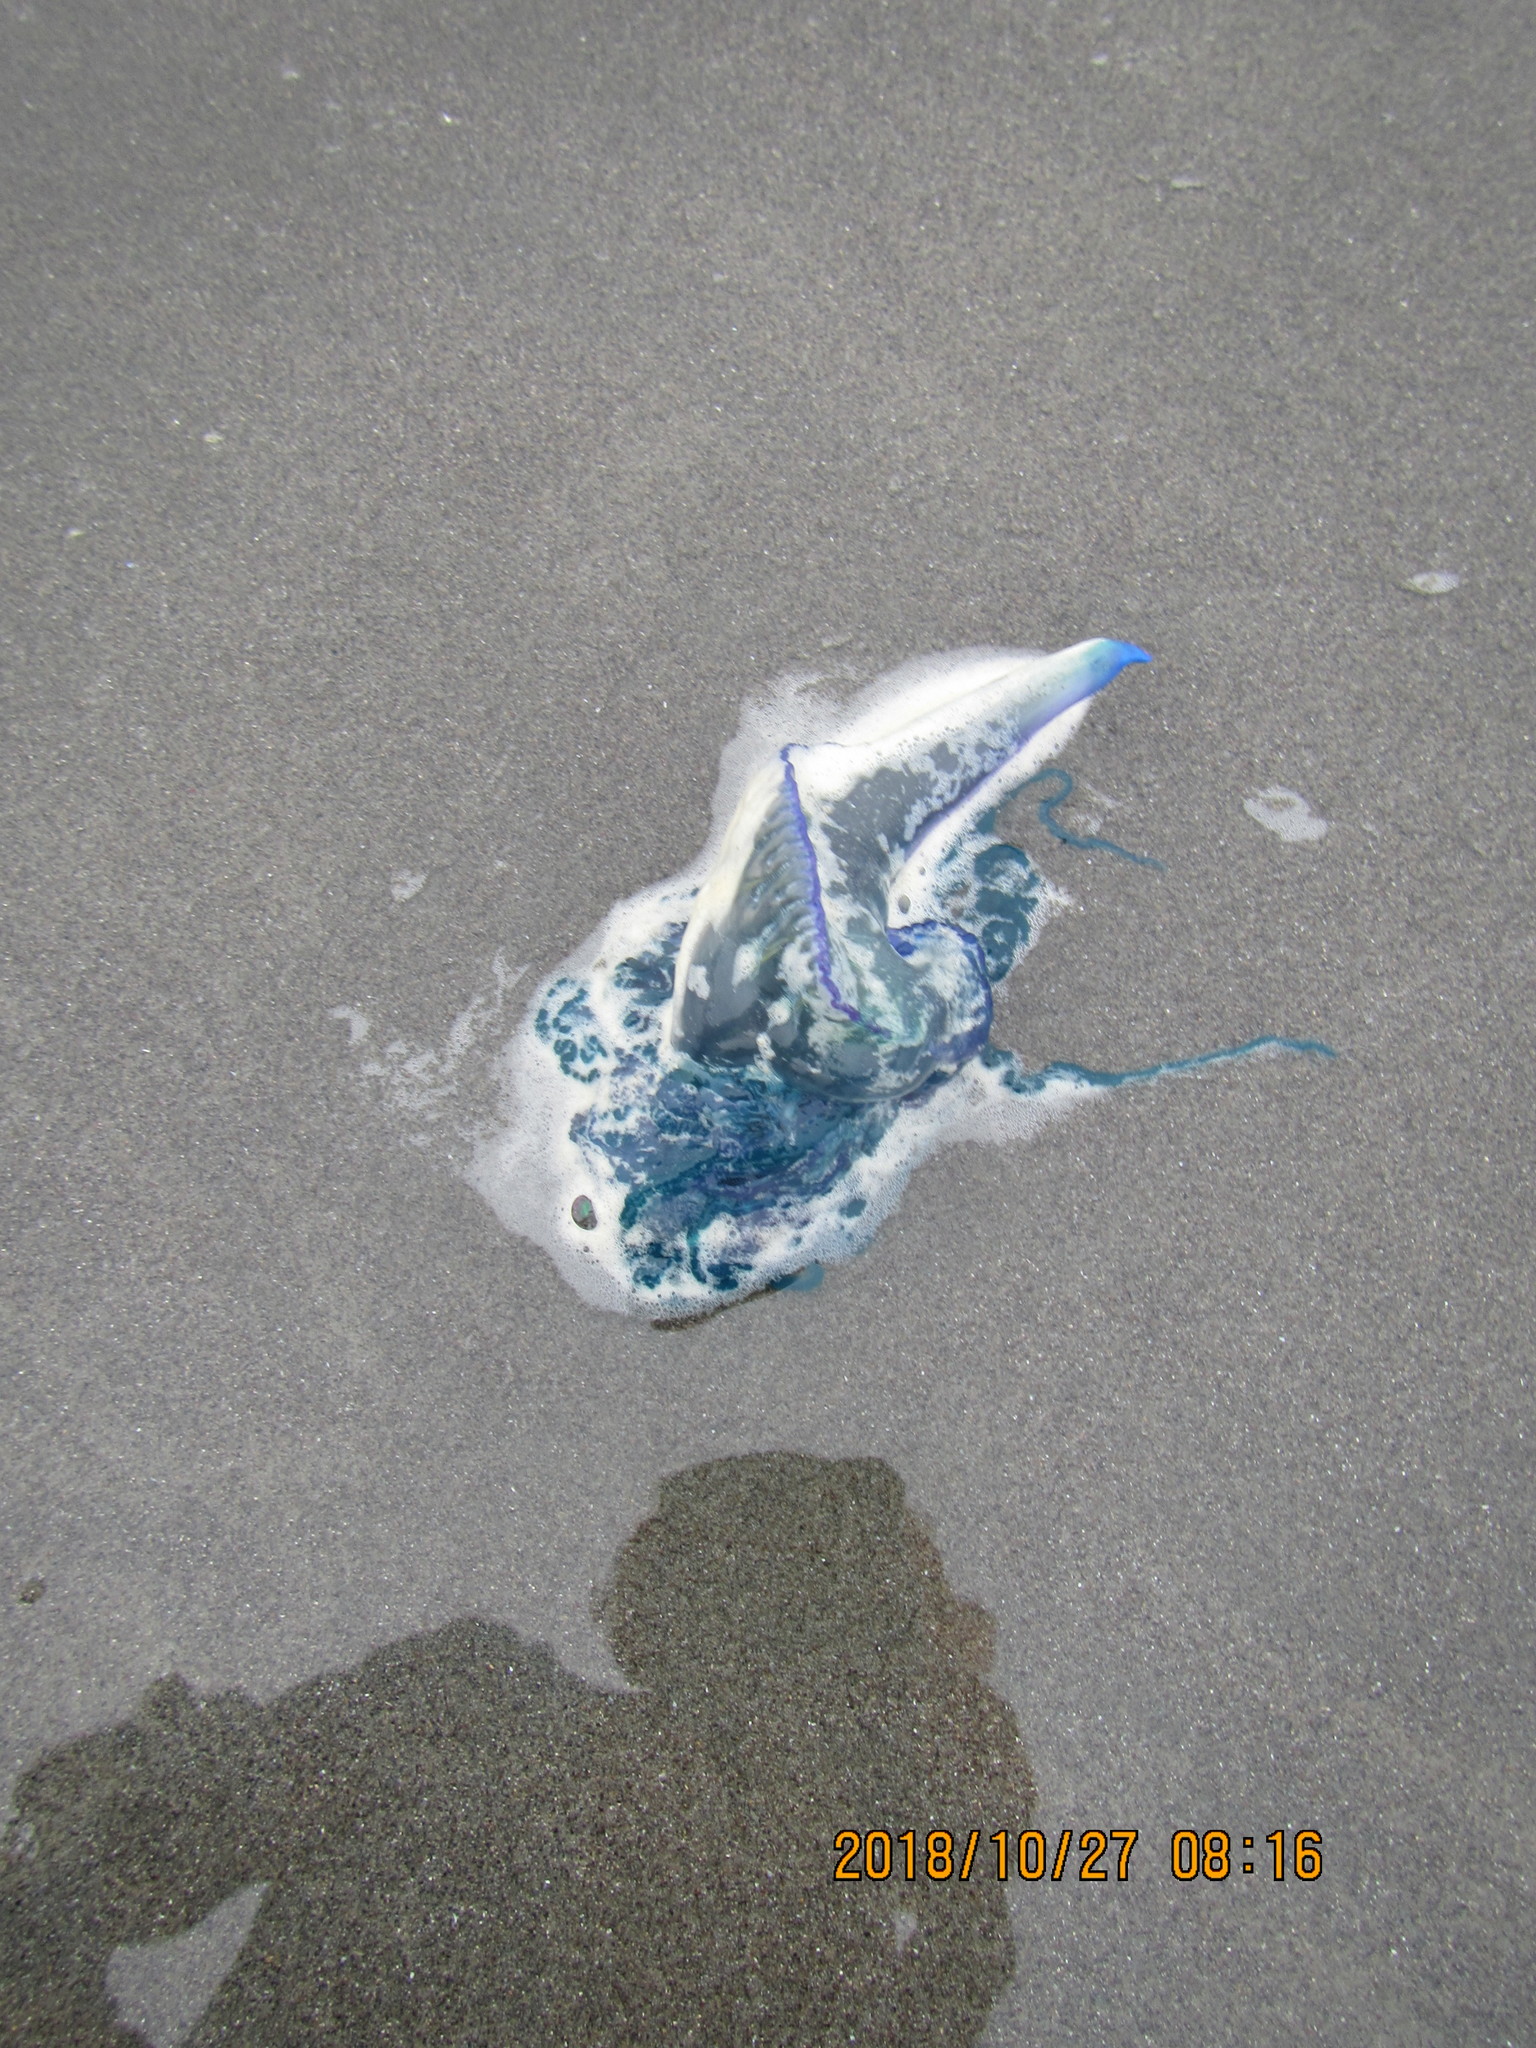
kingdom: Animalia
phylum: Cnidaria
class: Hydrozoa
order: Siphonophorae
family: Physaliidae
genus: Physalia
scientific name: Physalia physalis
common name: Portuguese man-of-war
